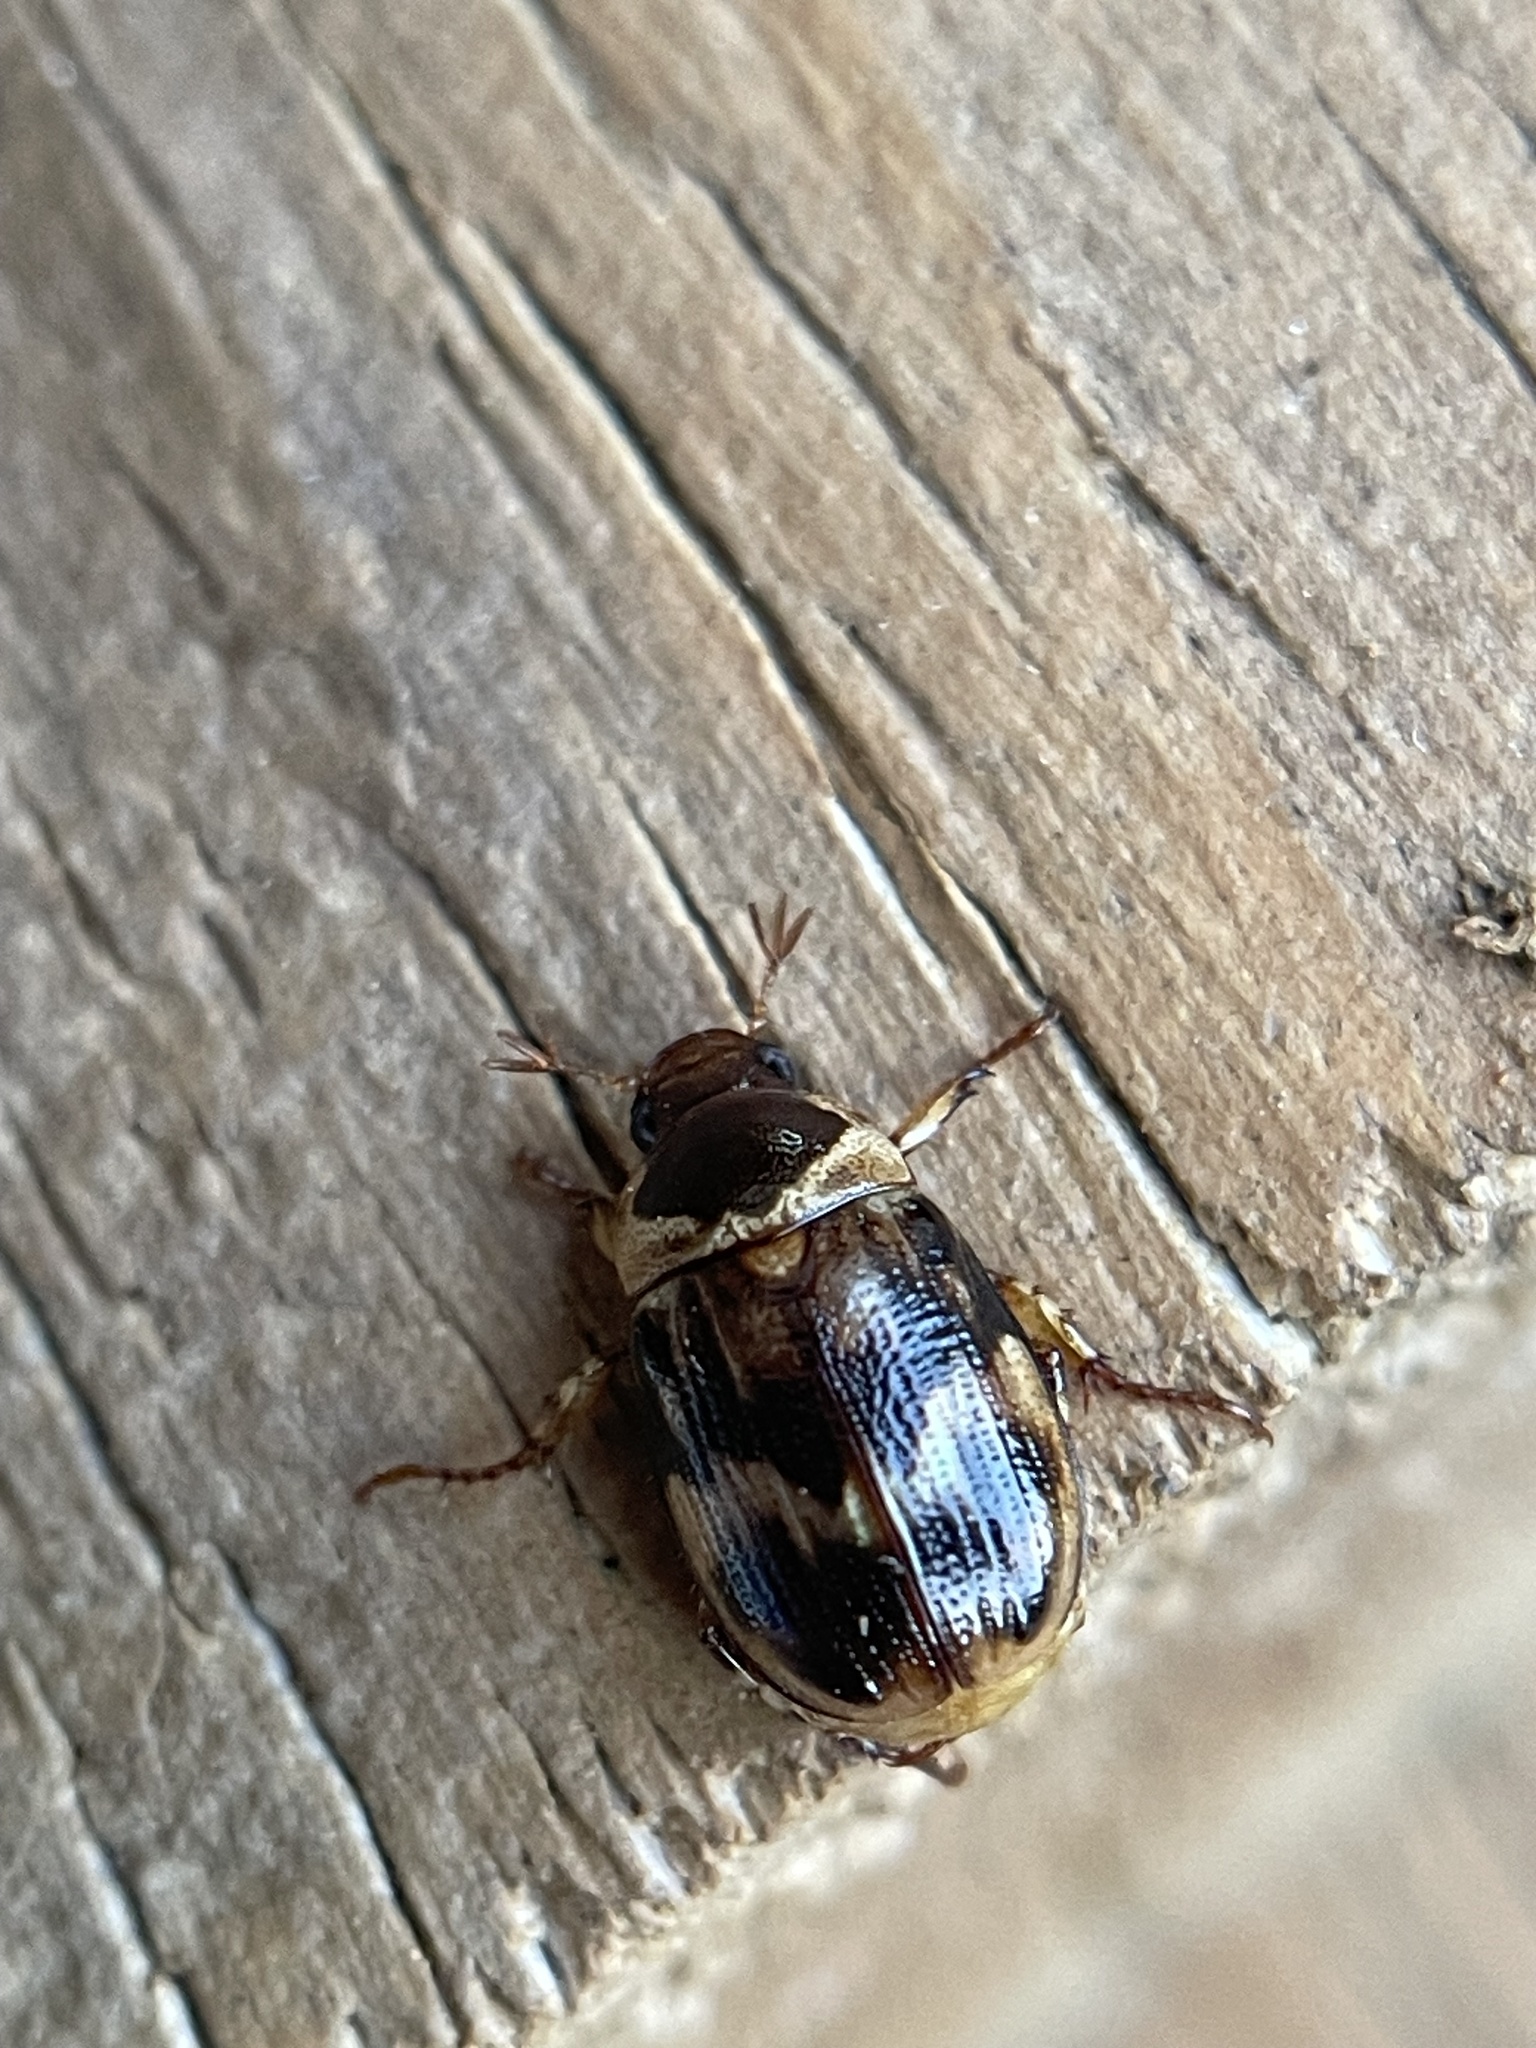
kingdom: Animalia
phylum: Arthropoda
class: Insecta
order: Coleoptera
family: Scarabaeidae
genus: Anomala
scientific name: Anomala innuba
